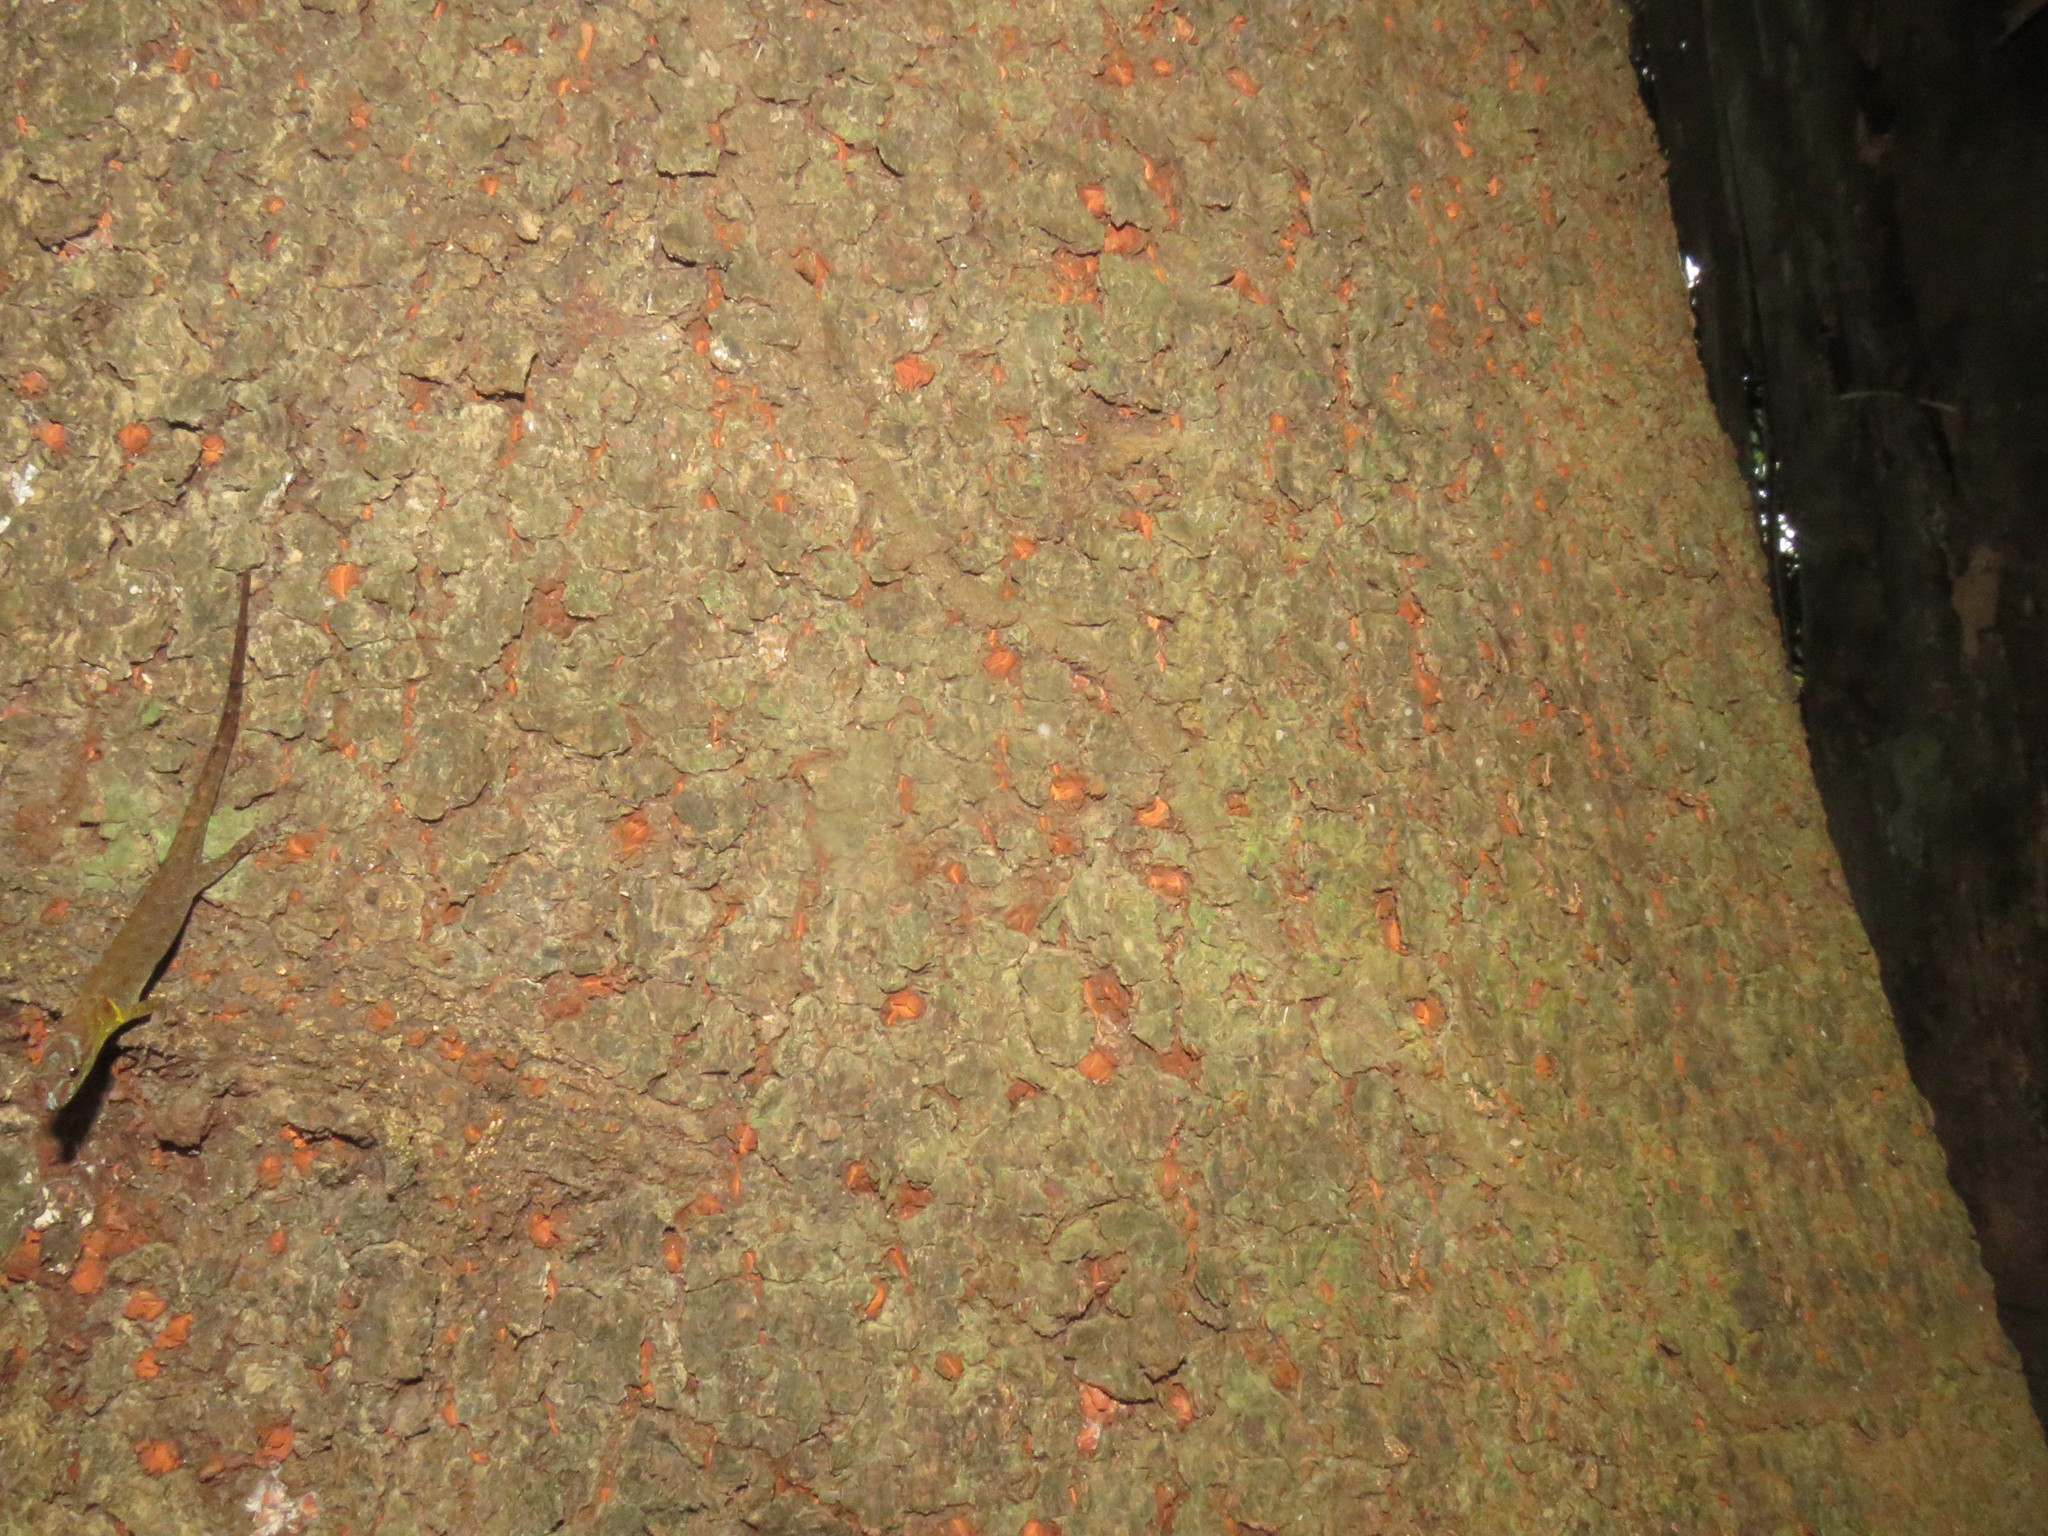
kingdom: Animalia
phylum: Chordata
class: Squamata
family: Sphaerodactylidae
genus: Gonatodes
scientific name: Gonatodes humeralis
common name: South american clawed gecko
